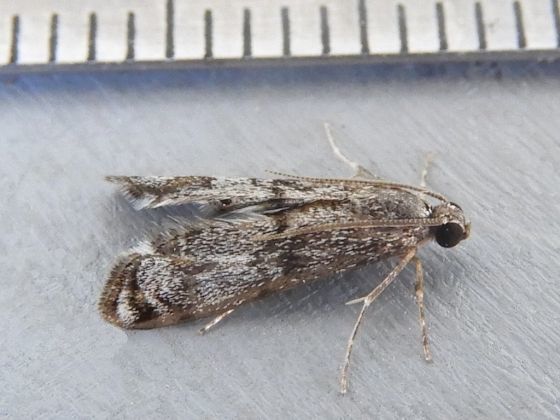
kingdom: Animalia
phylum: Arthropoda
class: Insecta
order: Lepidoptera
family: Crambidae
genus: Petrophila
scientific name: Petrophila schaefferalis
